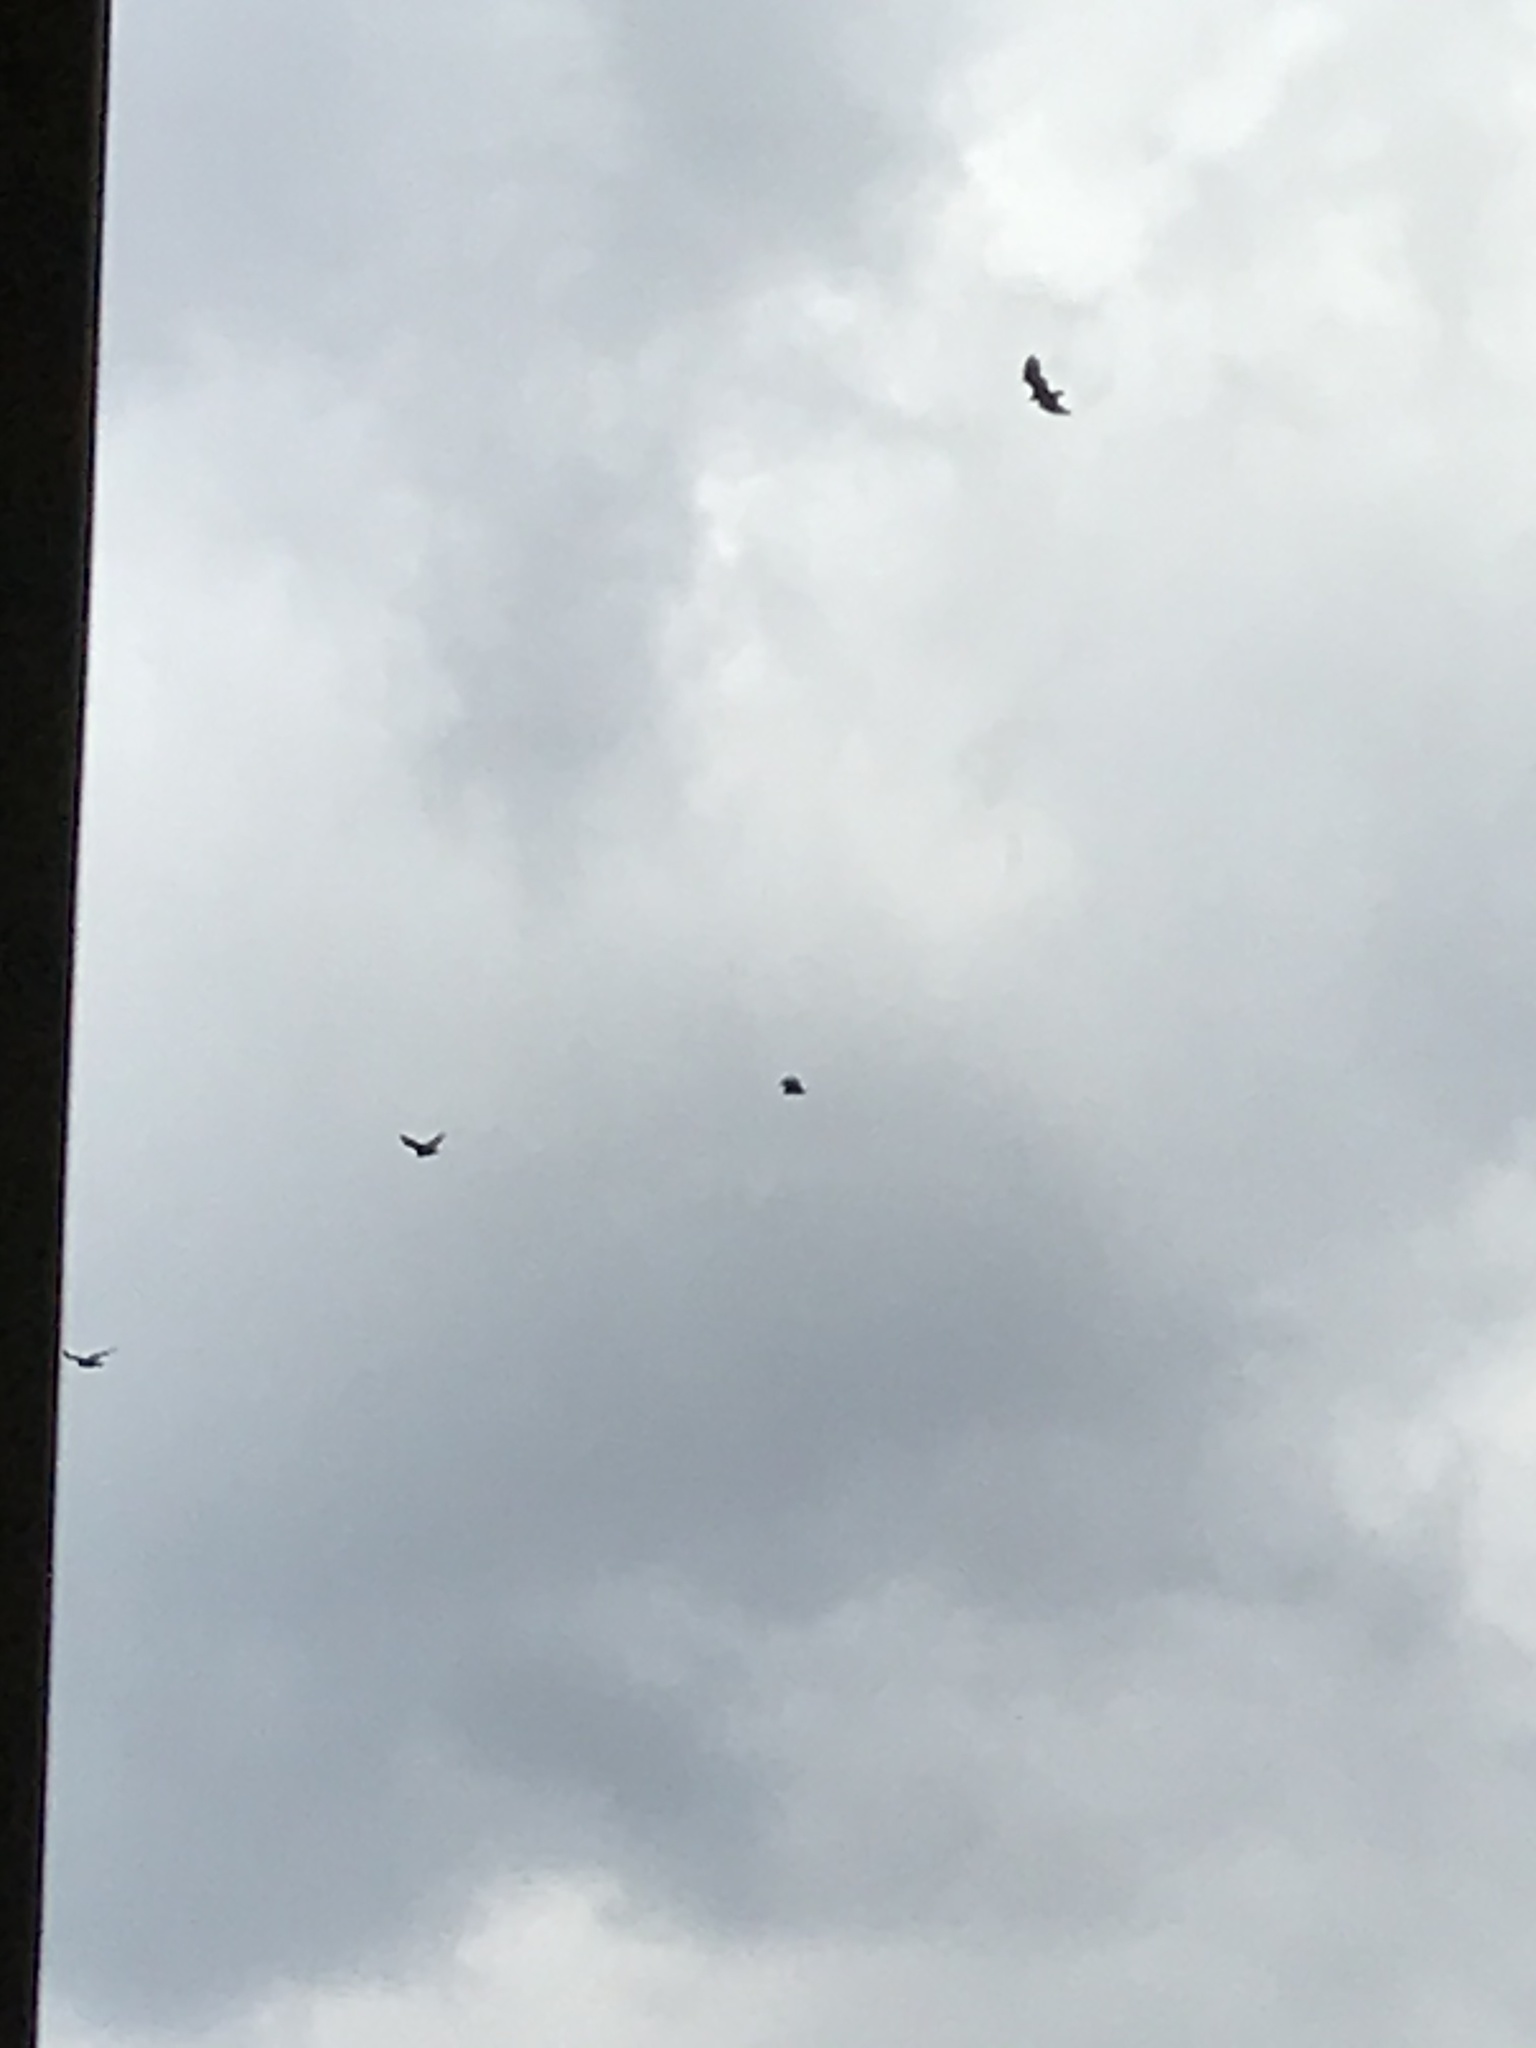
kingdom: Animalia
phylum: Chordata
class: Aves
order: Accipitriformes
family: Cathartidae
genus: Cathartes
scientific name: Cathartes aura
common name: Turkey vulture
